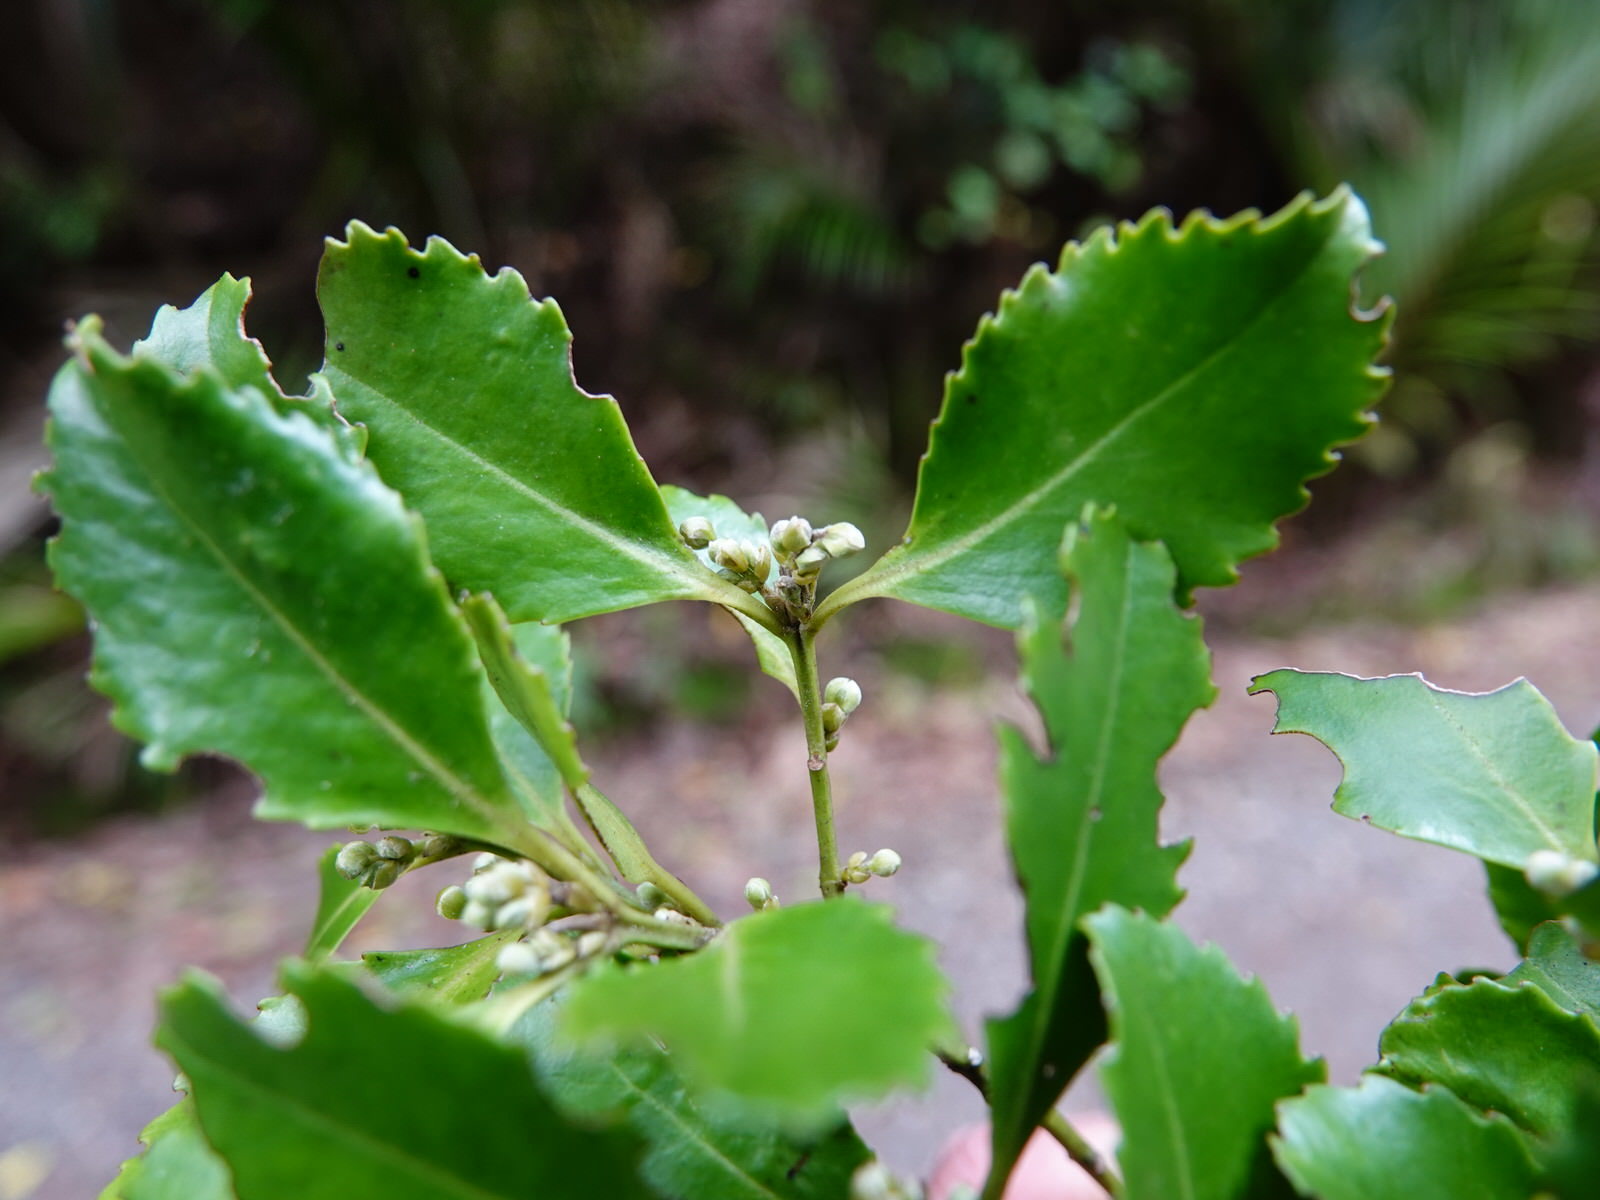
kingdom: Plantae
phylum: Tracheophyta
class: Magnoliopsida
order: Laurales
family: Atherospermataceae
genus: Laurelia
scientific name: Laurelia novae-zelandiae
